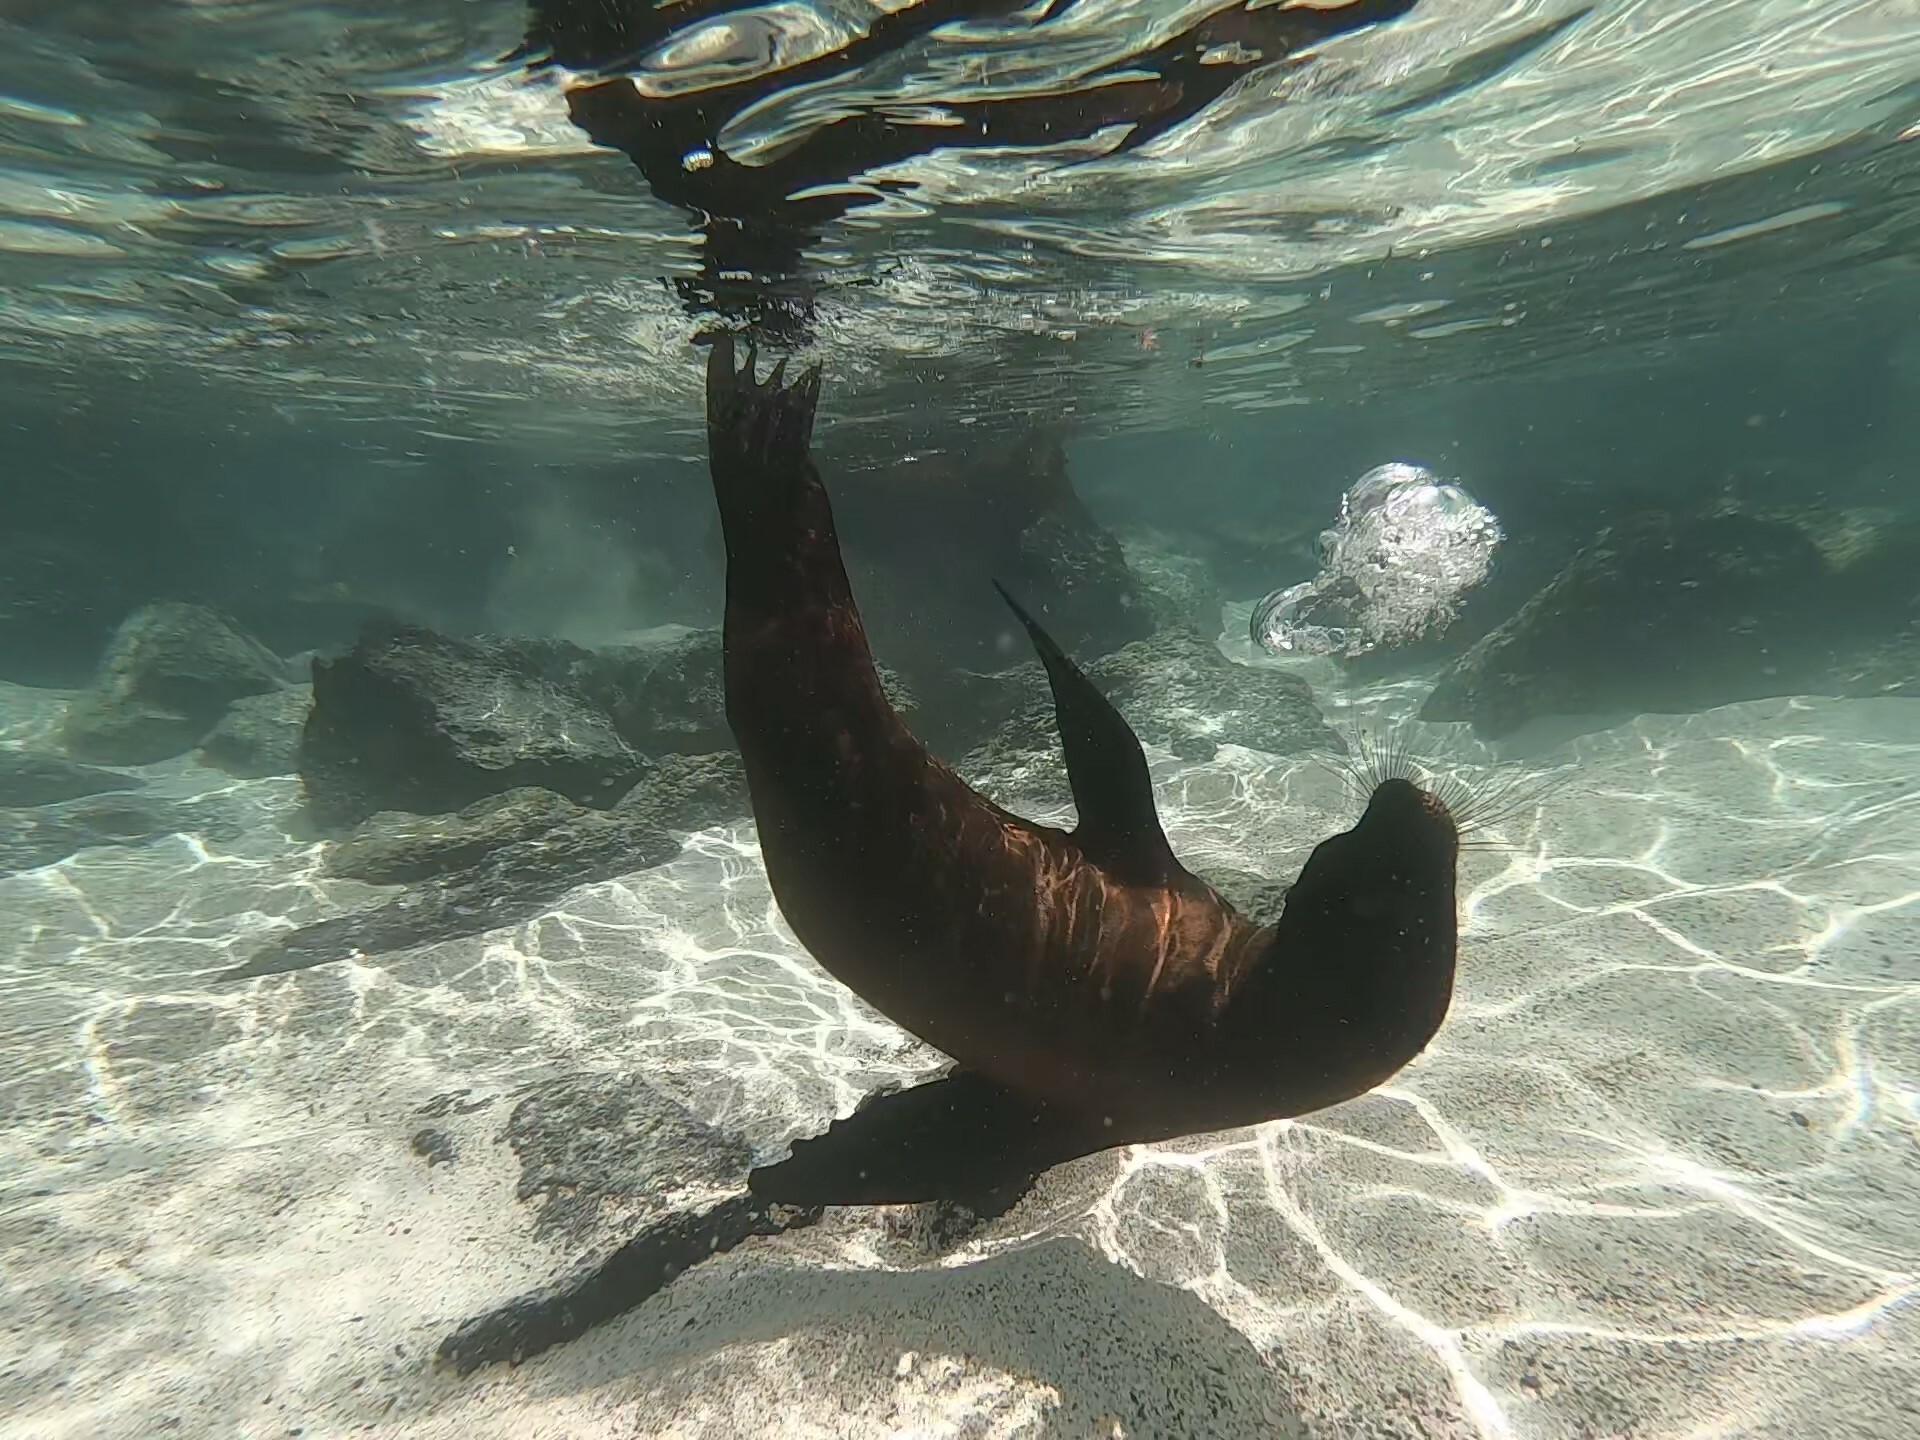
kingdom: Animalia
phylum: Chordata
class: Mammalia
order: Carnivora
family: Otariidae
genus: Zalophus
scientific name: Zalophus wollebaeki
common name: Galapagos sea lion
